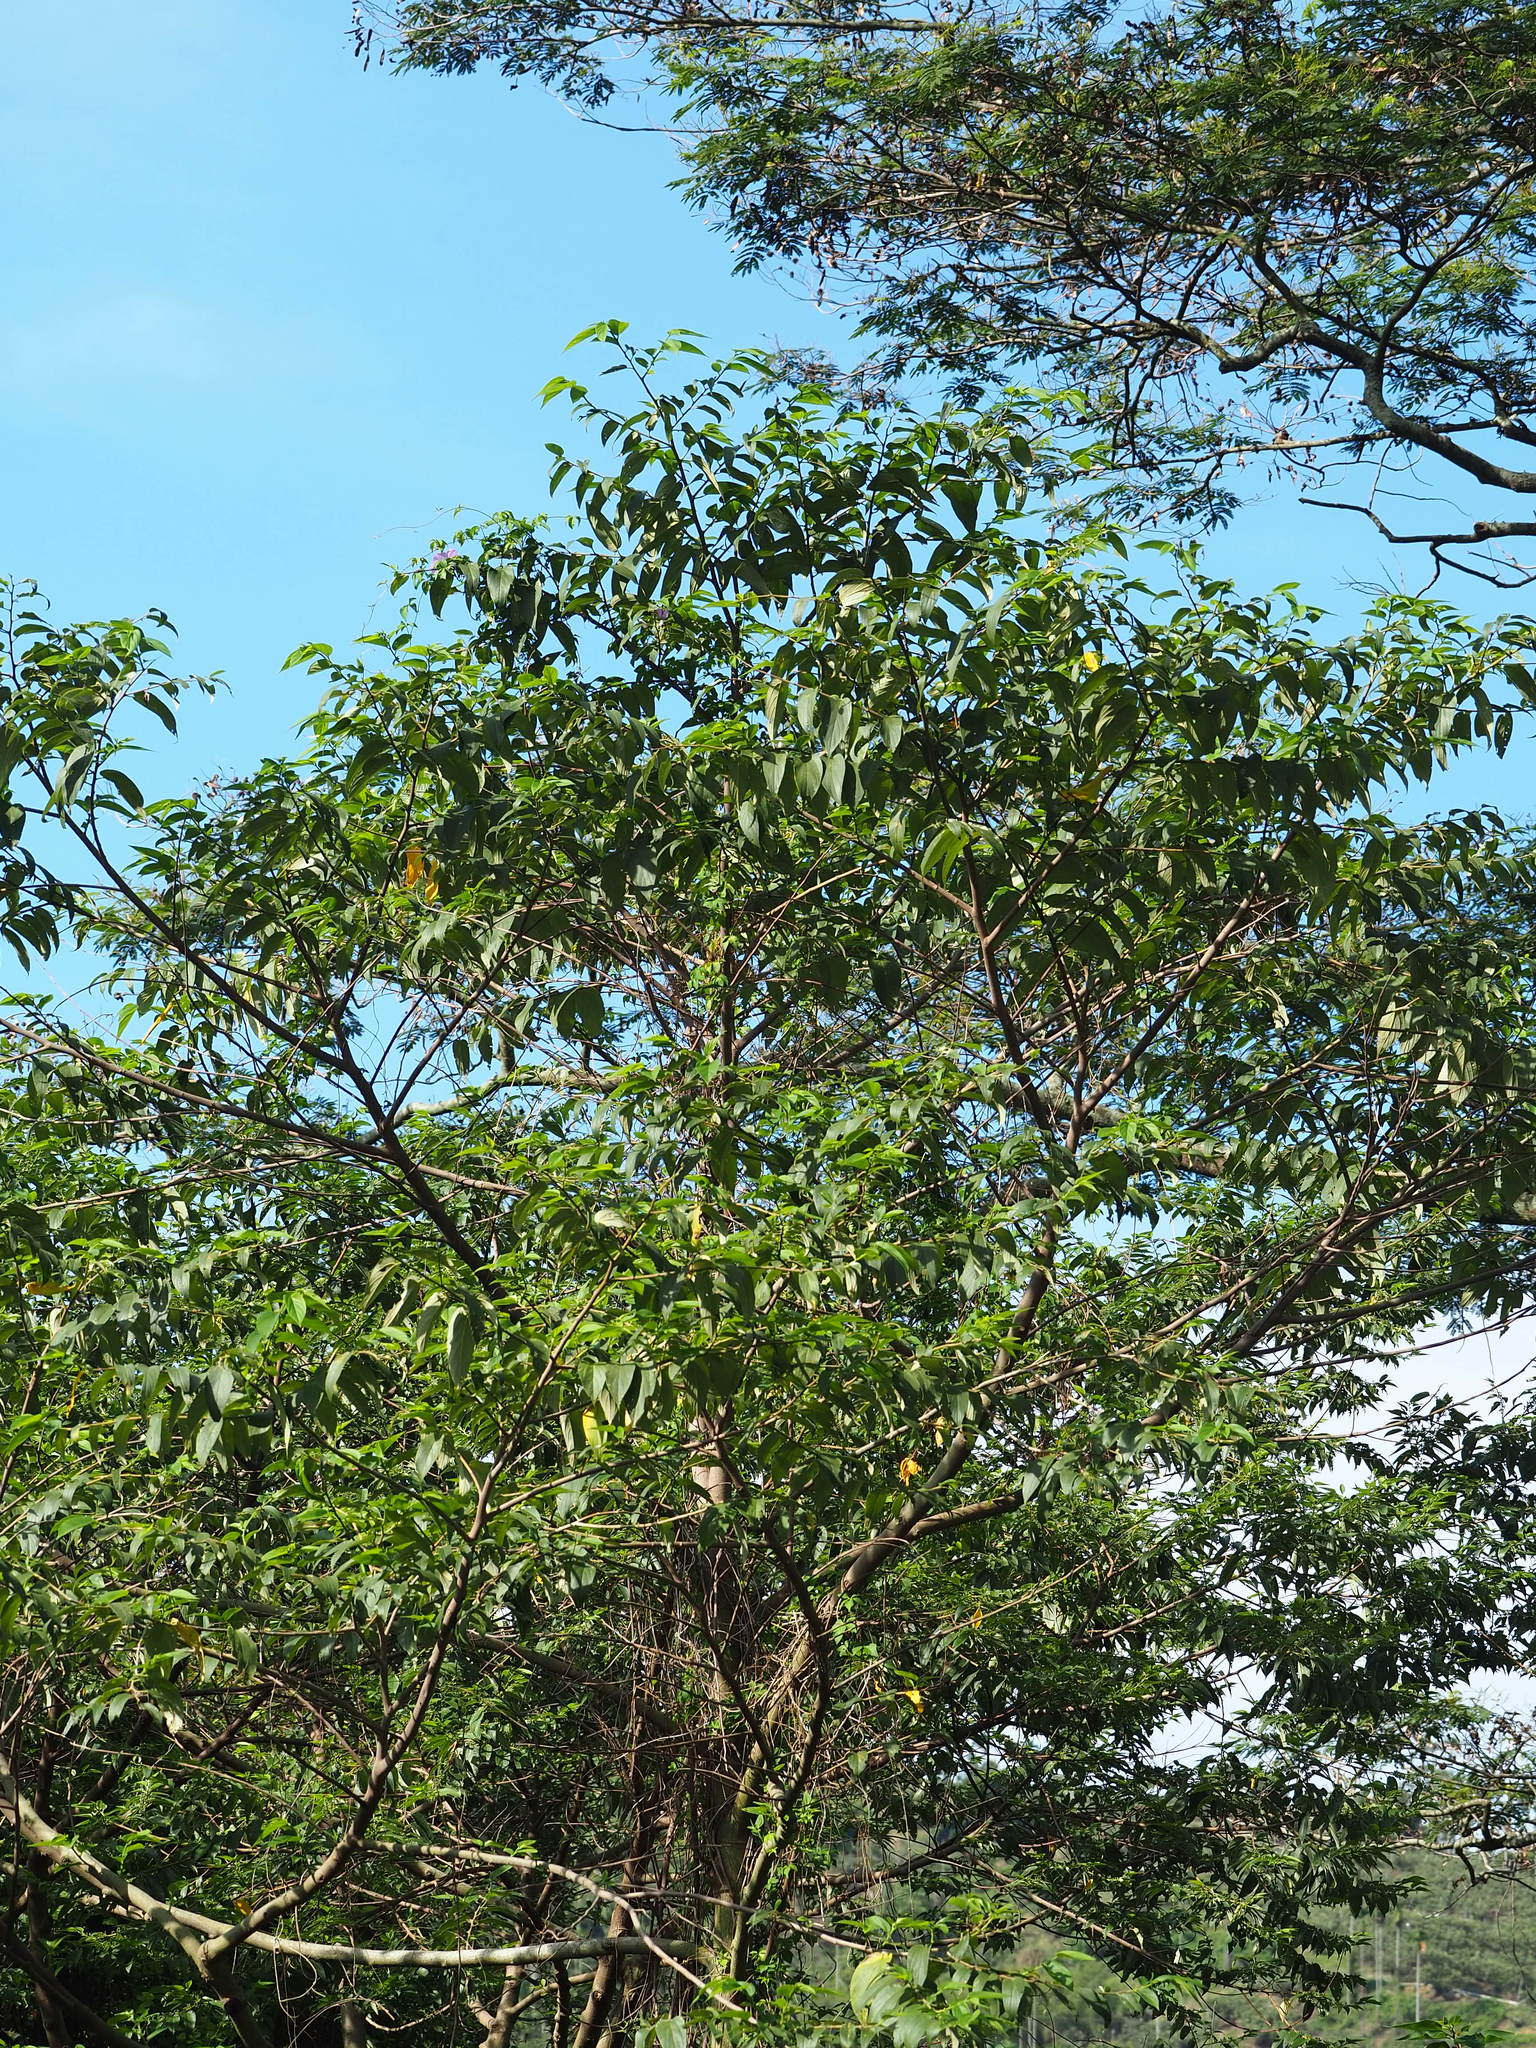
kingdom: Plantae
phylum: Tracheophyta
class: Magnoliopsida
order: Rosales
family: Cannabaceae
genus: Trema
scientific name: Trema orientale
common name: Indian charcoal tree
